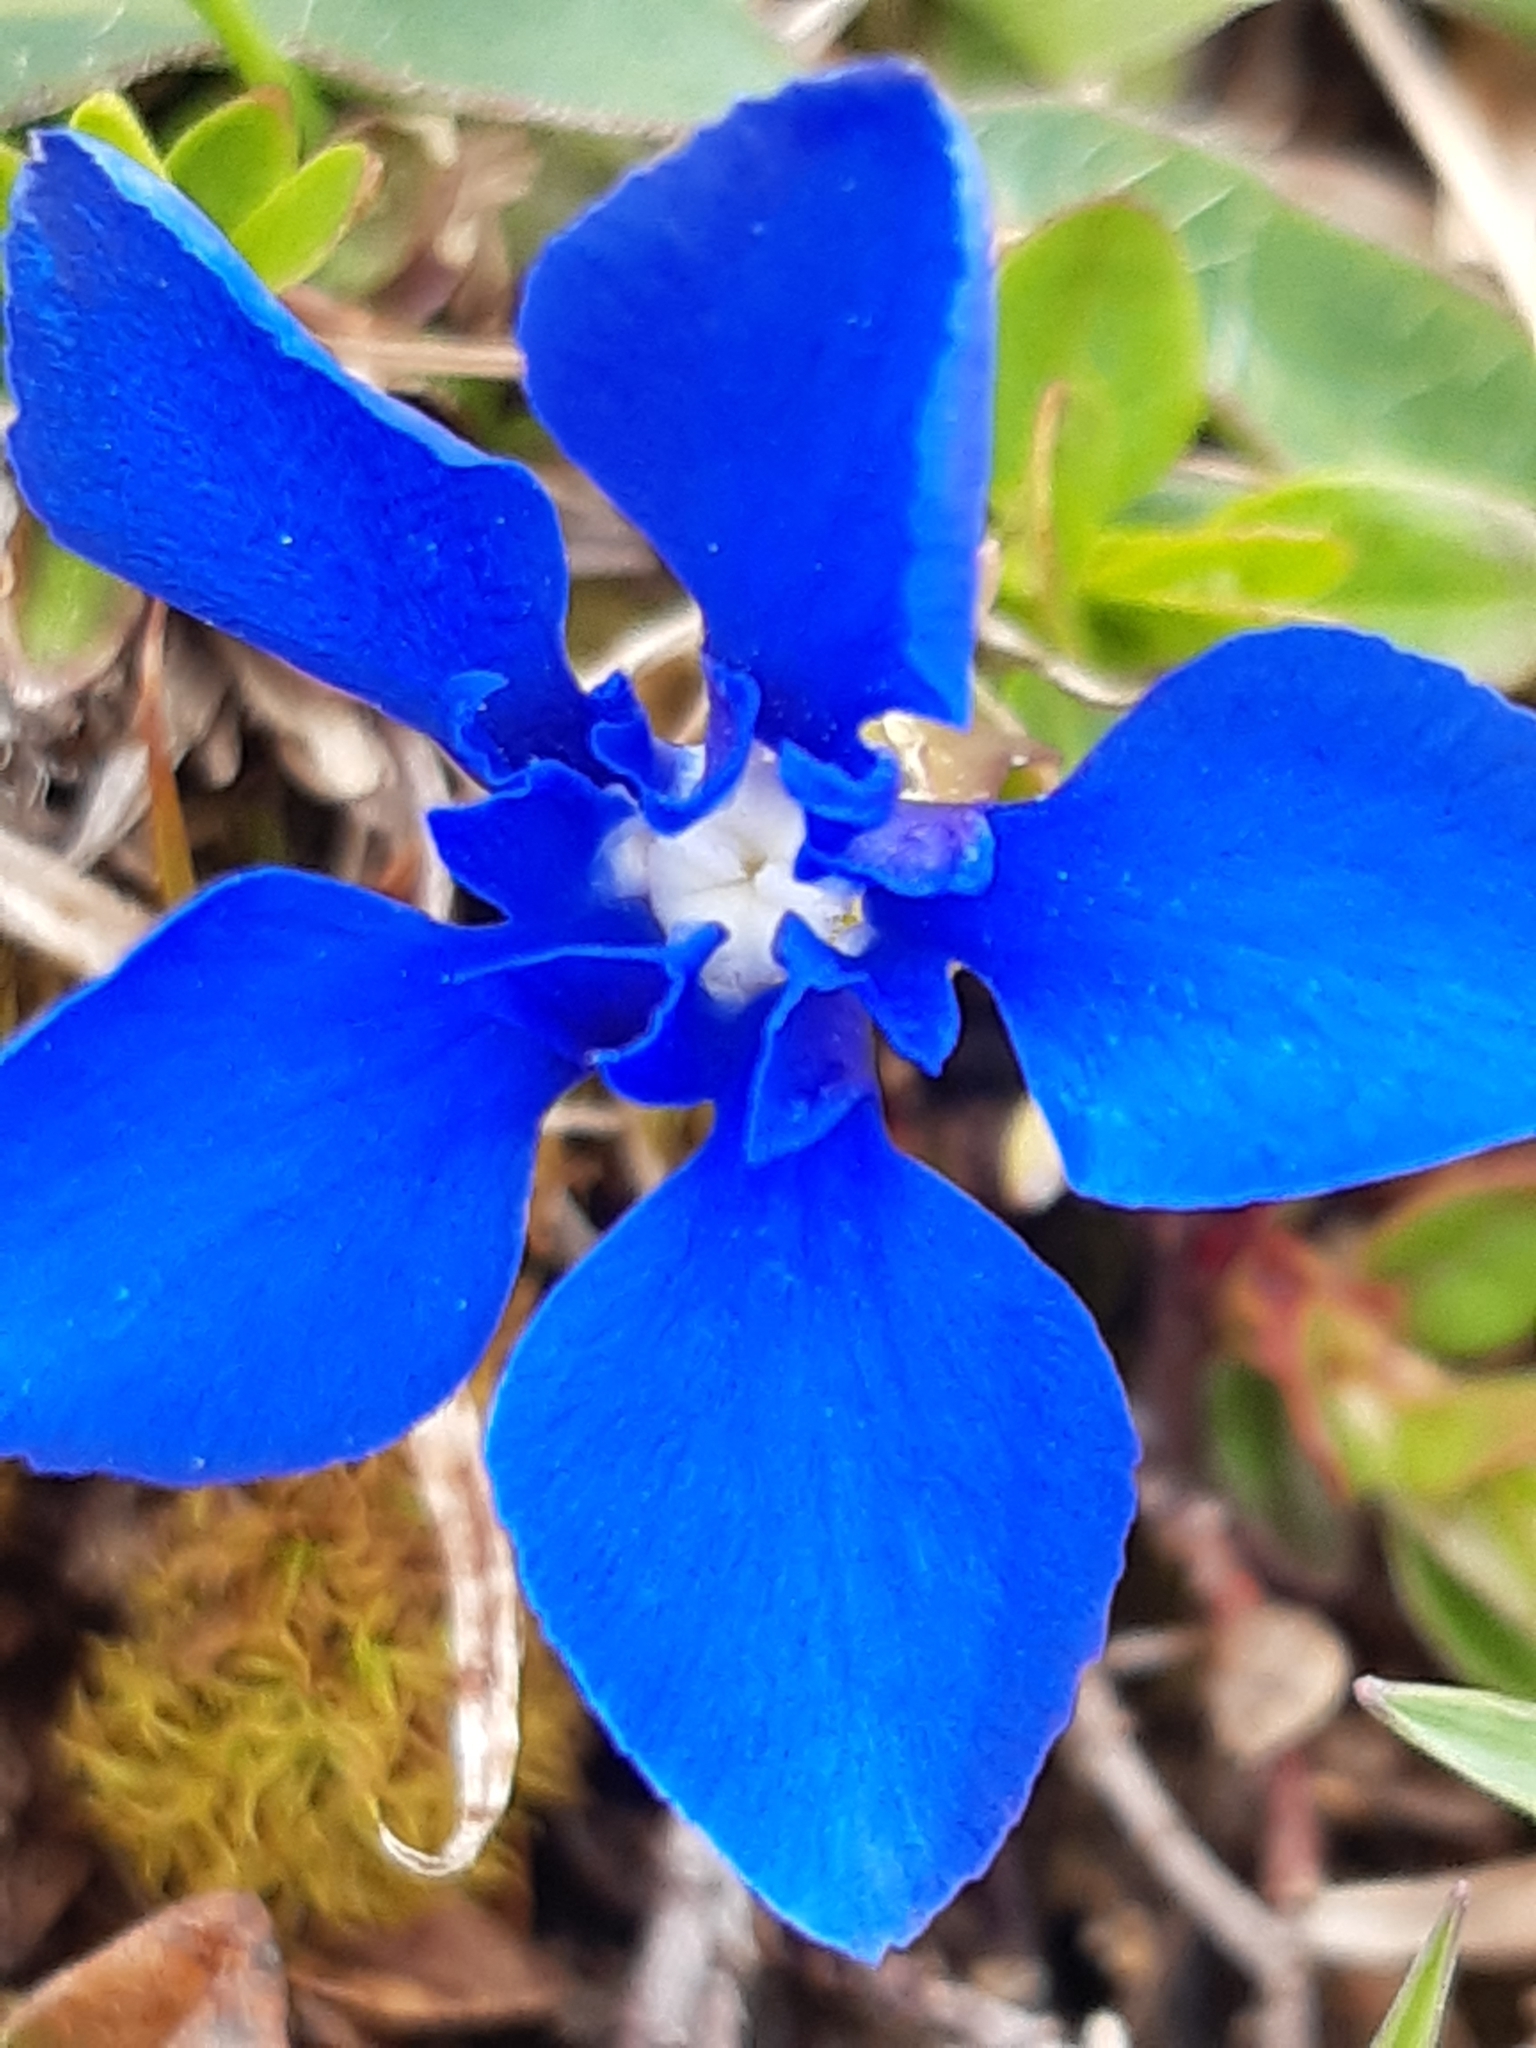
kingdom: Plantae
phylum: Tracheophyta
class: Magnoliopsida
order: Gentianales
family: Gentianaceae
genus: Gentiana
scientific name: Gentiana verna
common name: Spring gentian
